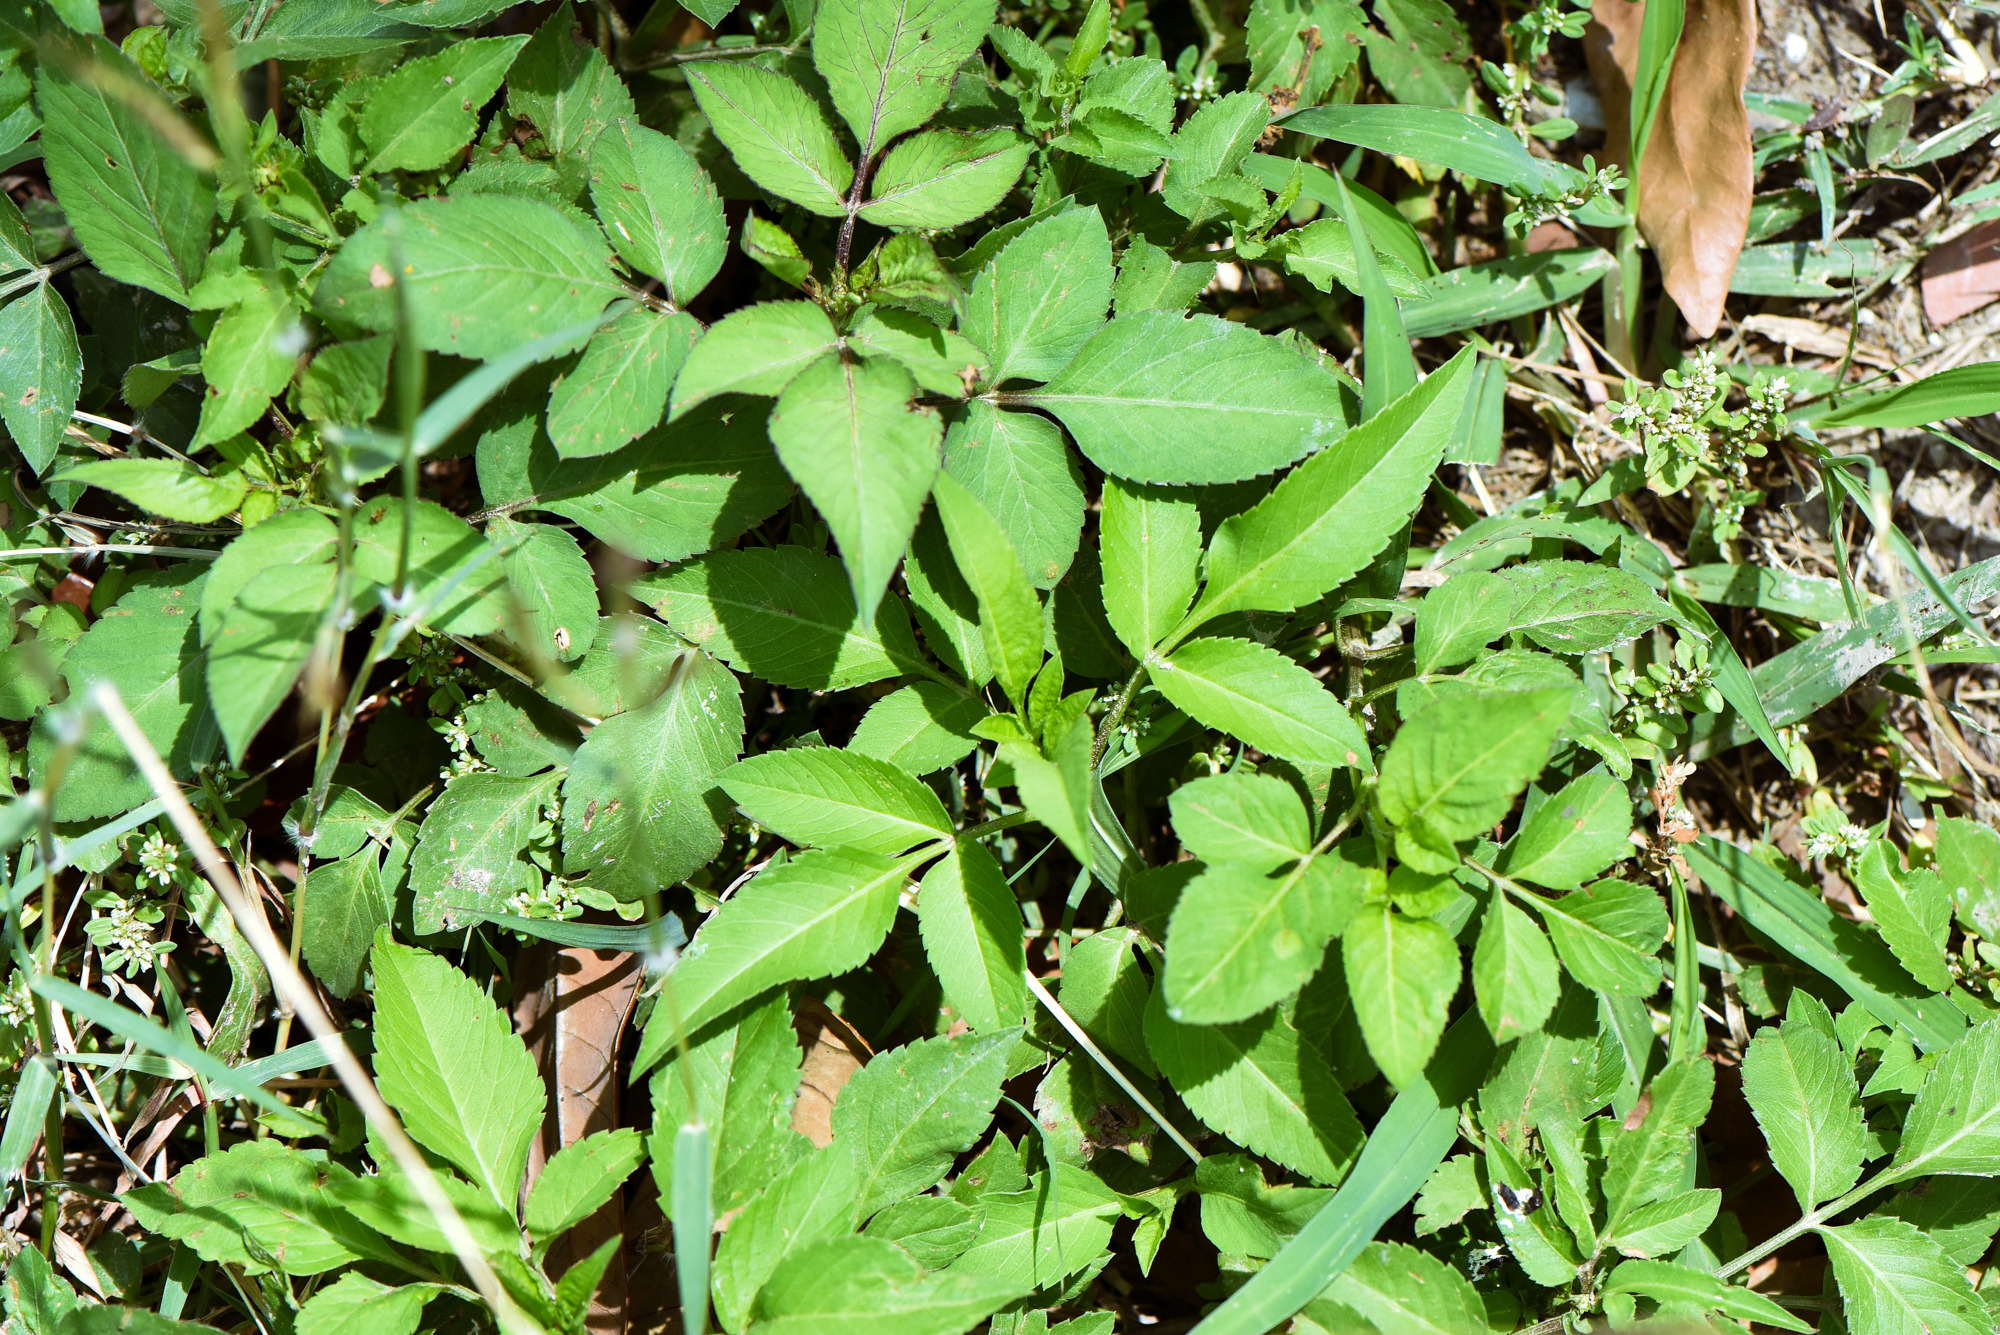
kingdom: Plantae
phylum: Tracheophyta
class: Magnoliopsida
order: Asterales
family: Asteraceae
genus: Bidens
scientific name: Bidens alba
